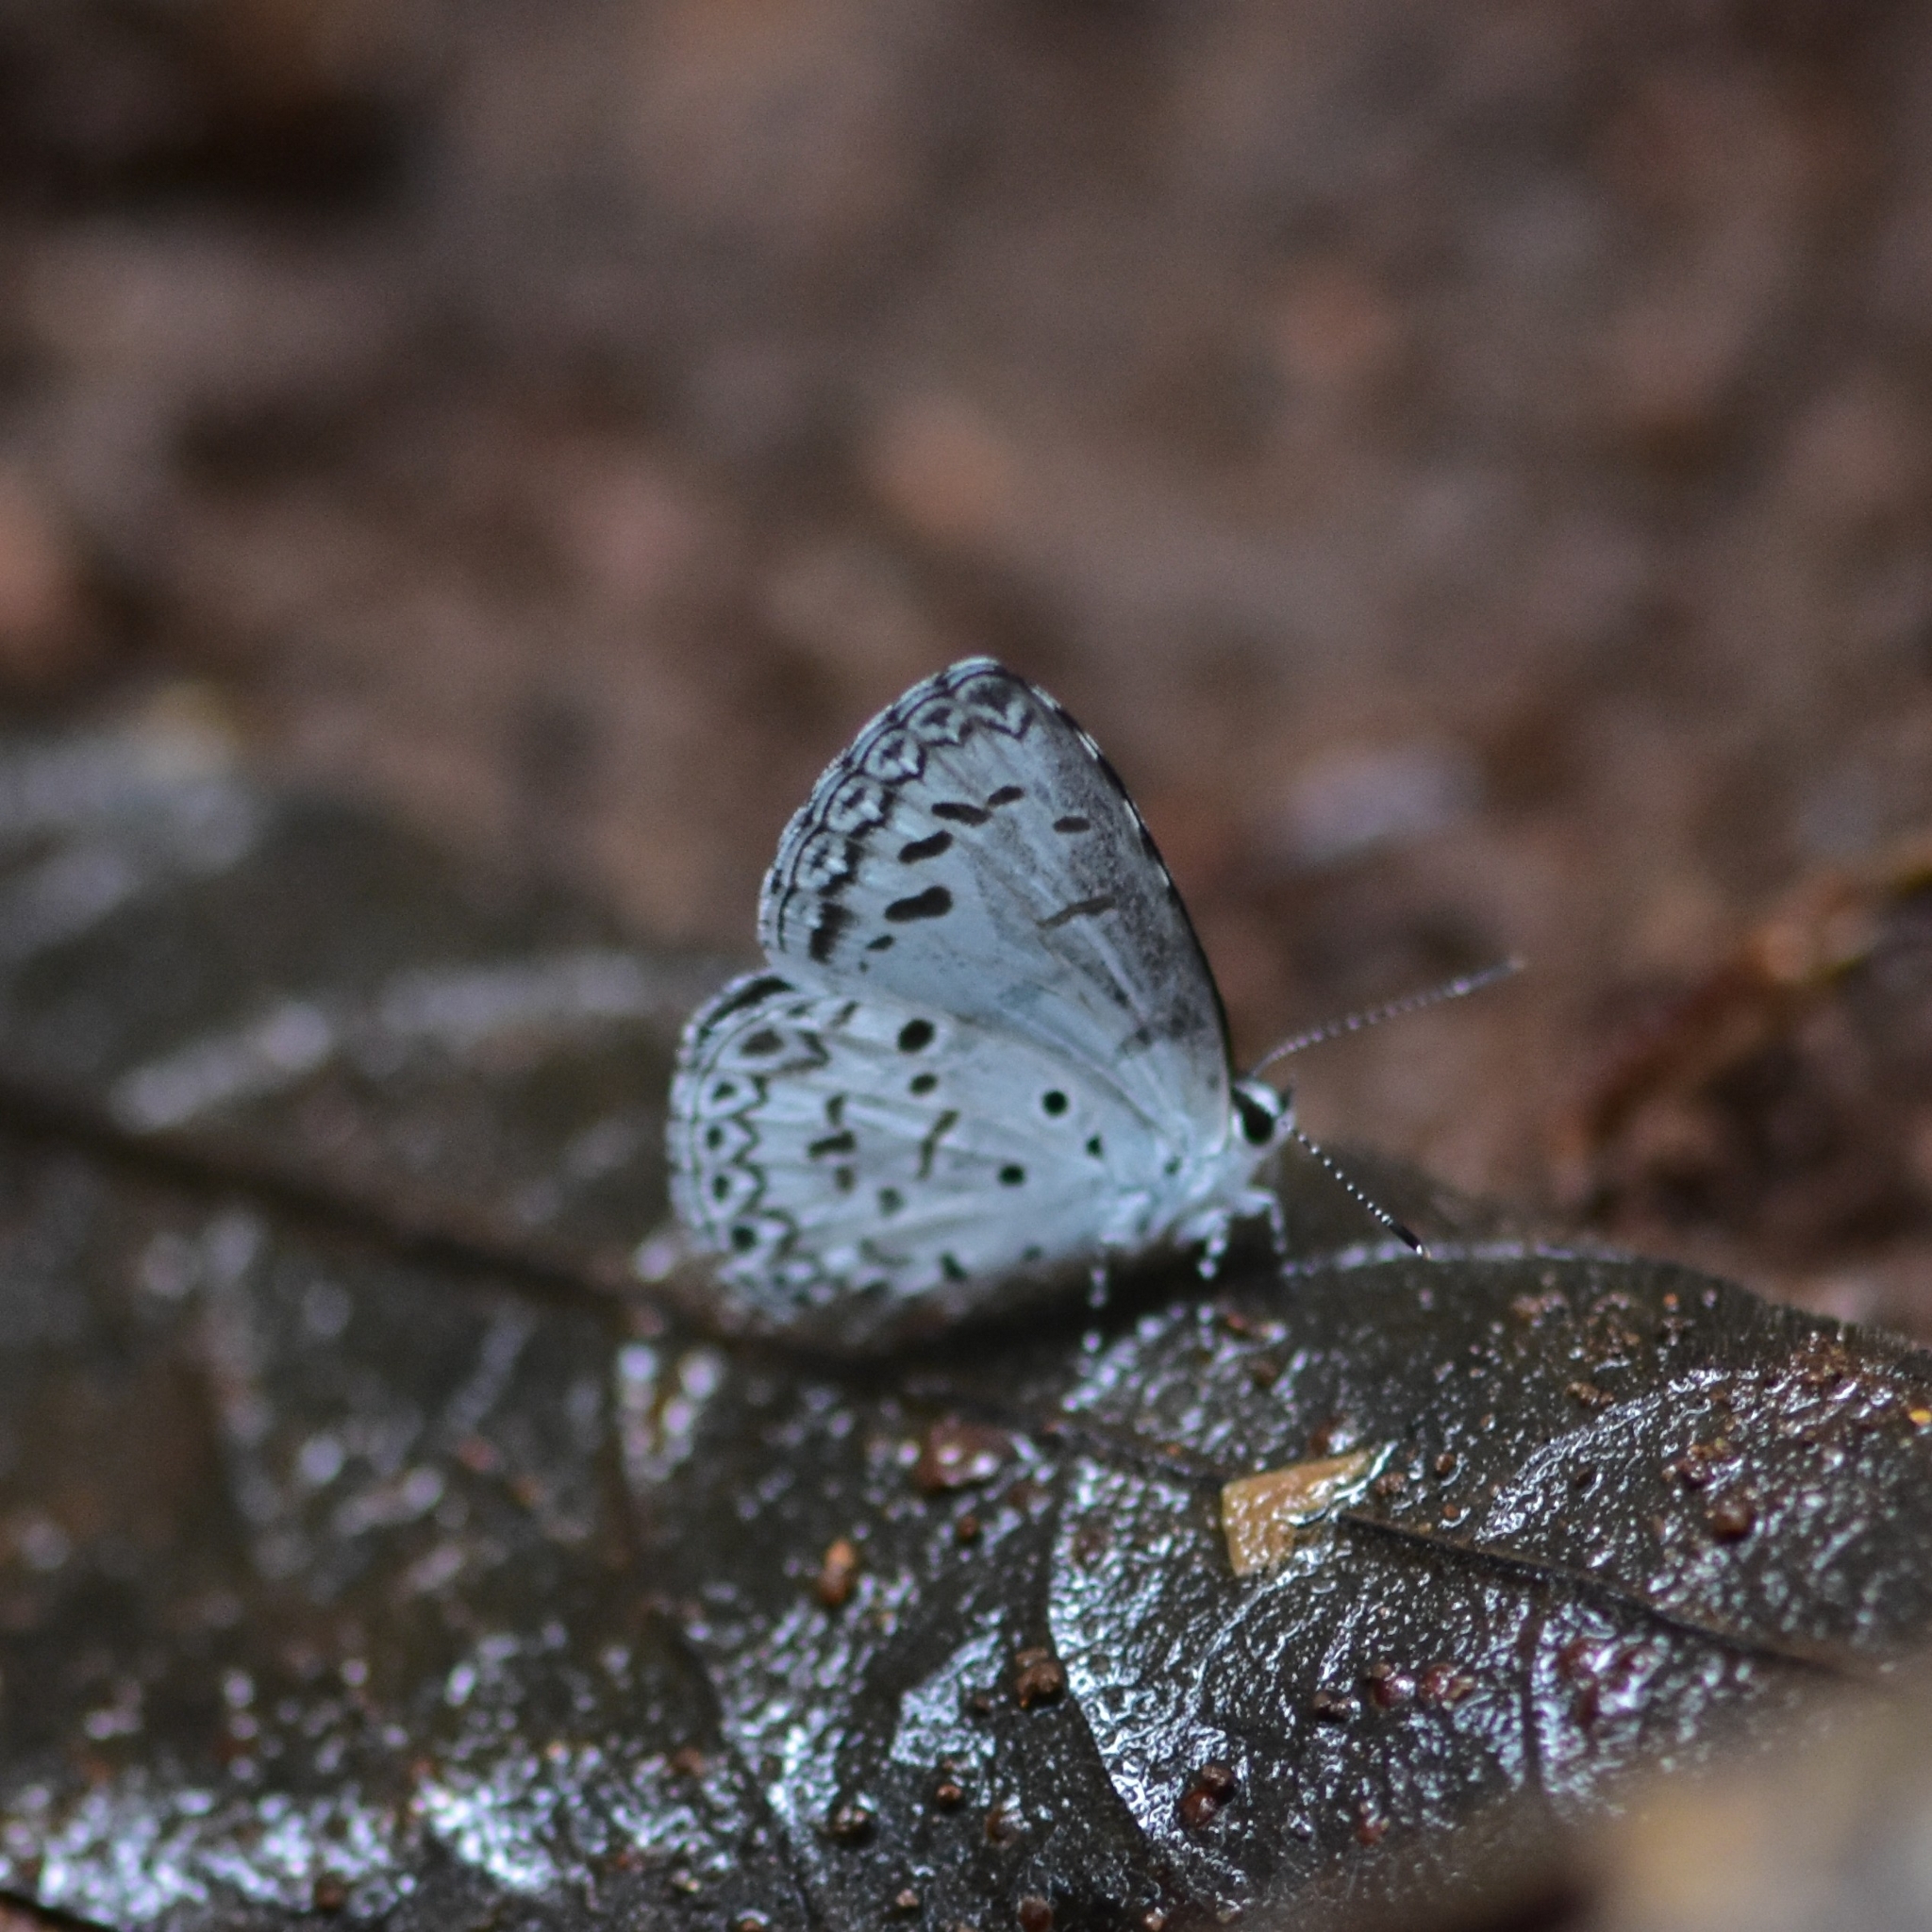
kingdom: Animalia
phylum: Arthropoda
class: Insecta
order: Lepidoptera
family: Lycaenidae
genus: Acytolepis
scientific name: Acytolepis puspa
